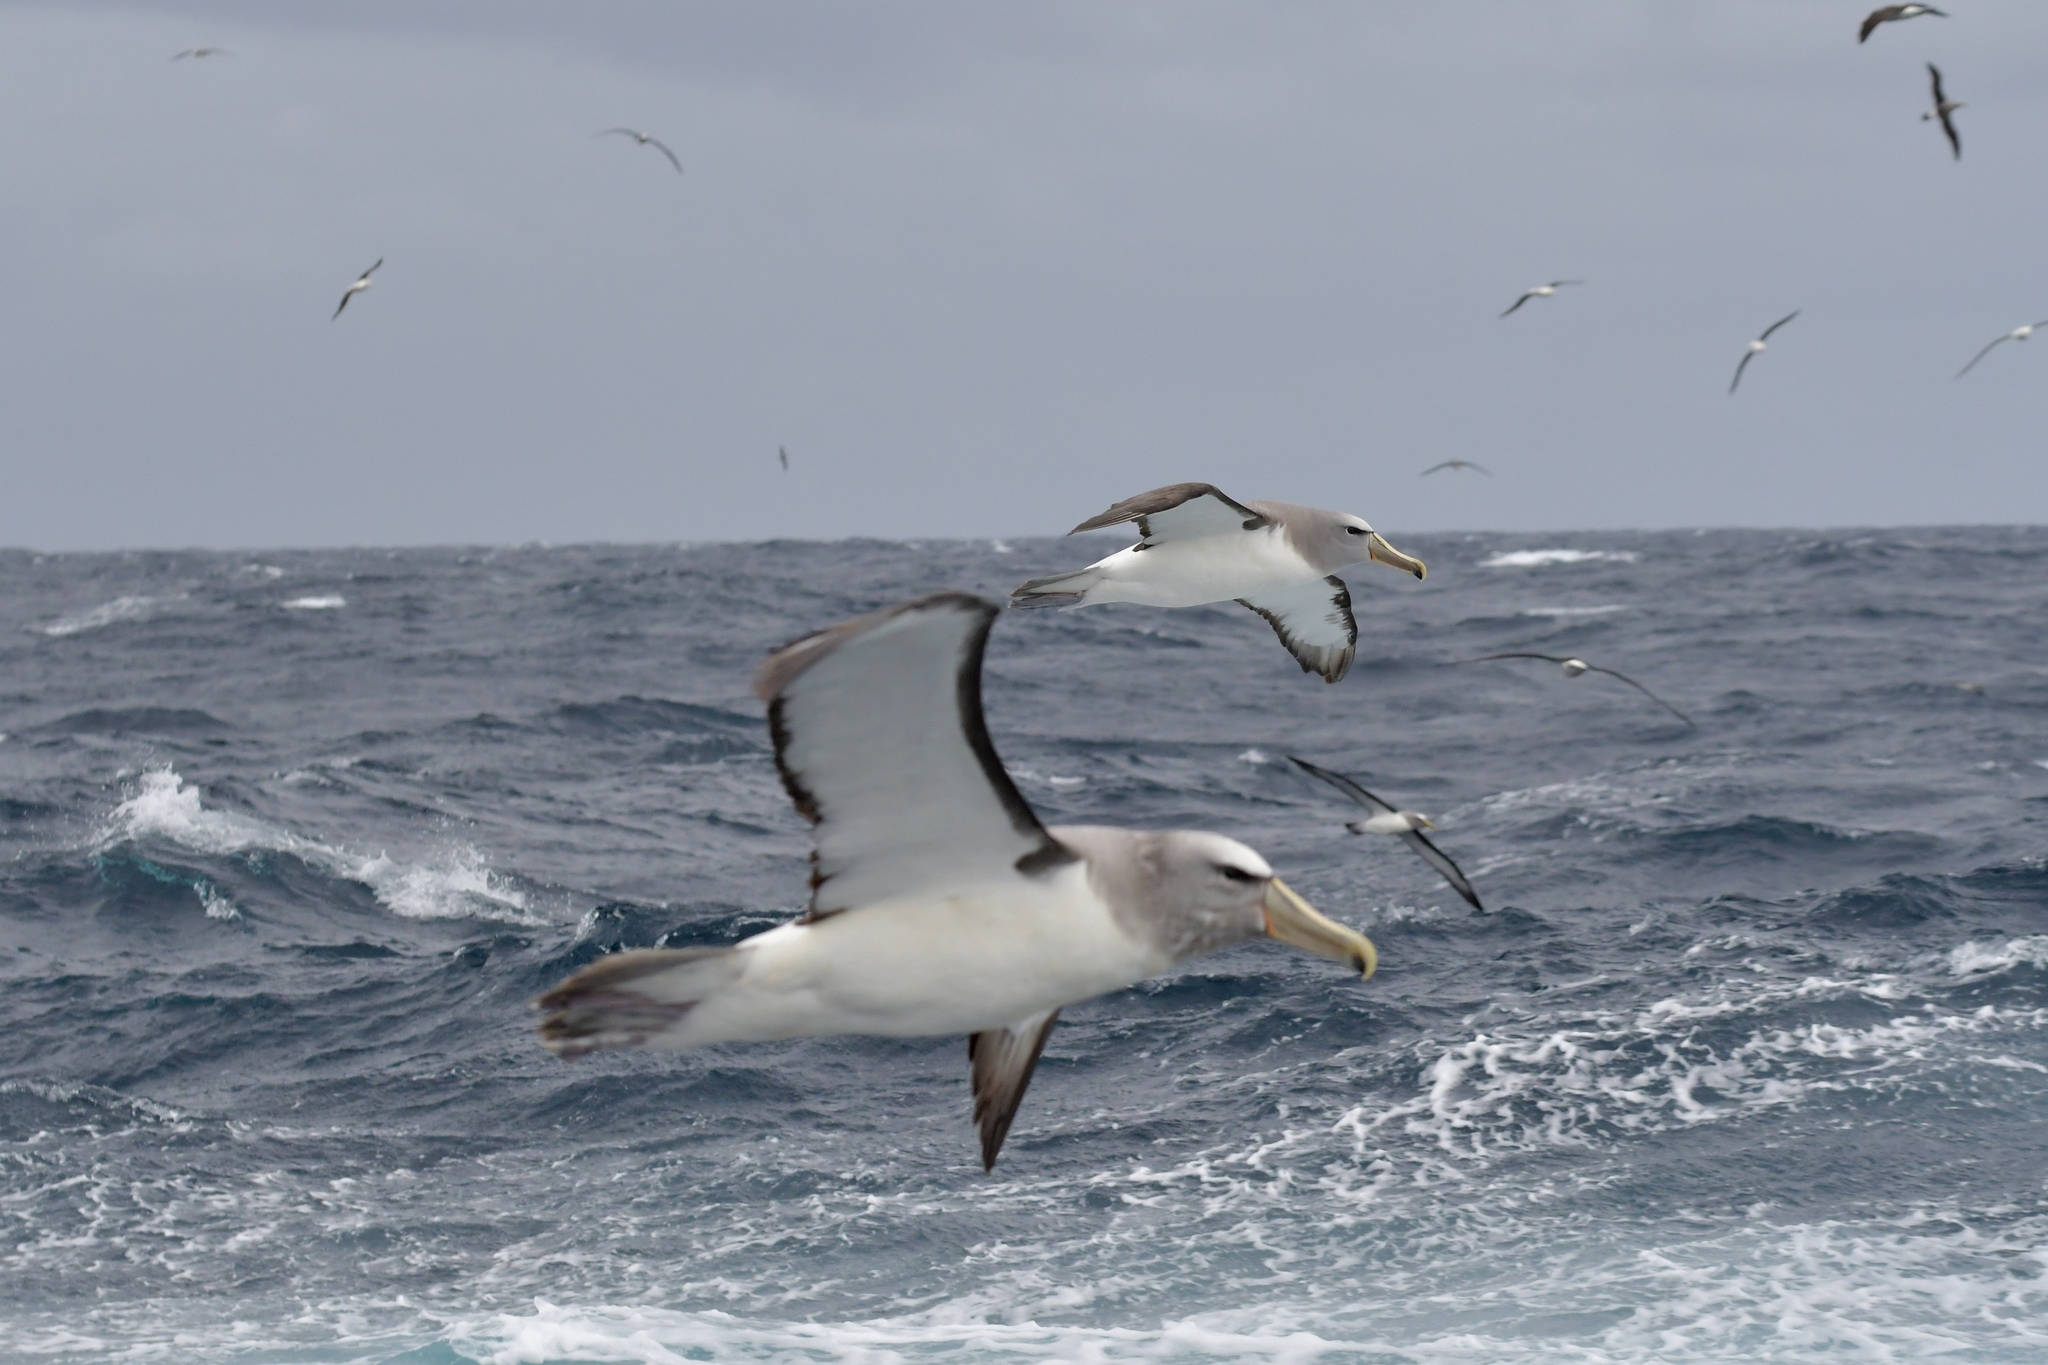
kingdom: Animalia
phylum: Chordata
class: Aves
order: Procellariiformes
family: Diomedeidae
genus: Thalassarche
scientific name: Thalassarche salvini
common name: Salvin's albatross
